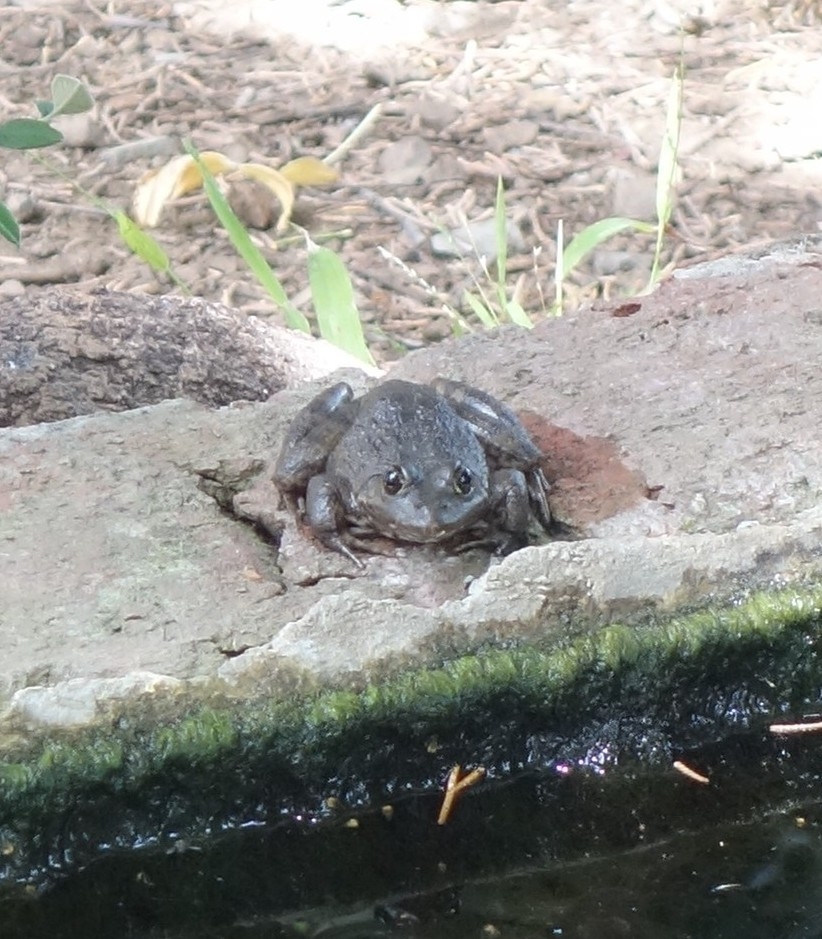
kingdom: Animalia
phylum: Chordata
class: Amphibia
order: Anura
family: Pyxicephalidae
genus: Amietia
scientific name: Amietia poyntoni
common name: Poynton's river frog
